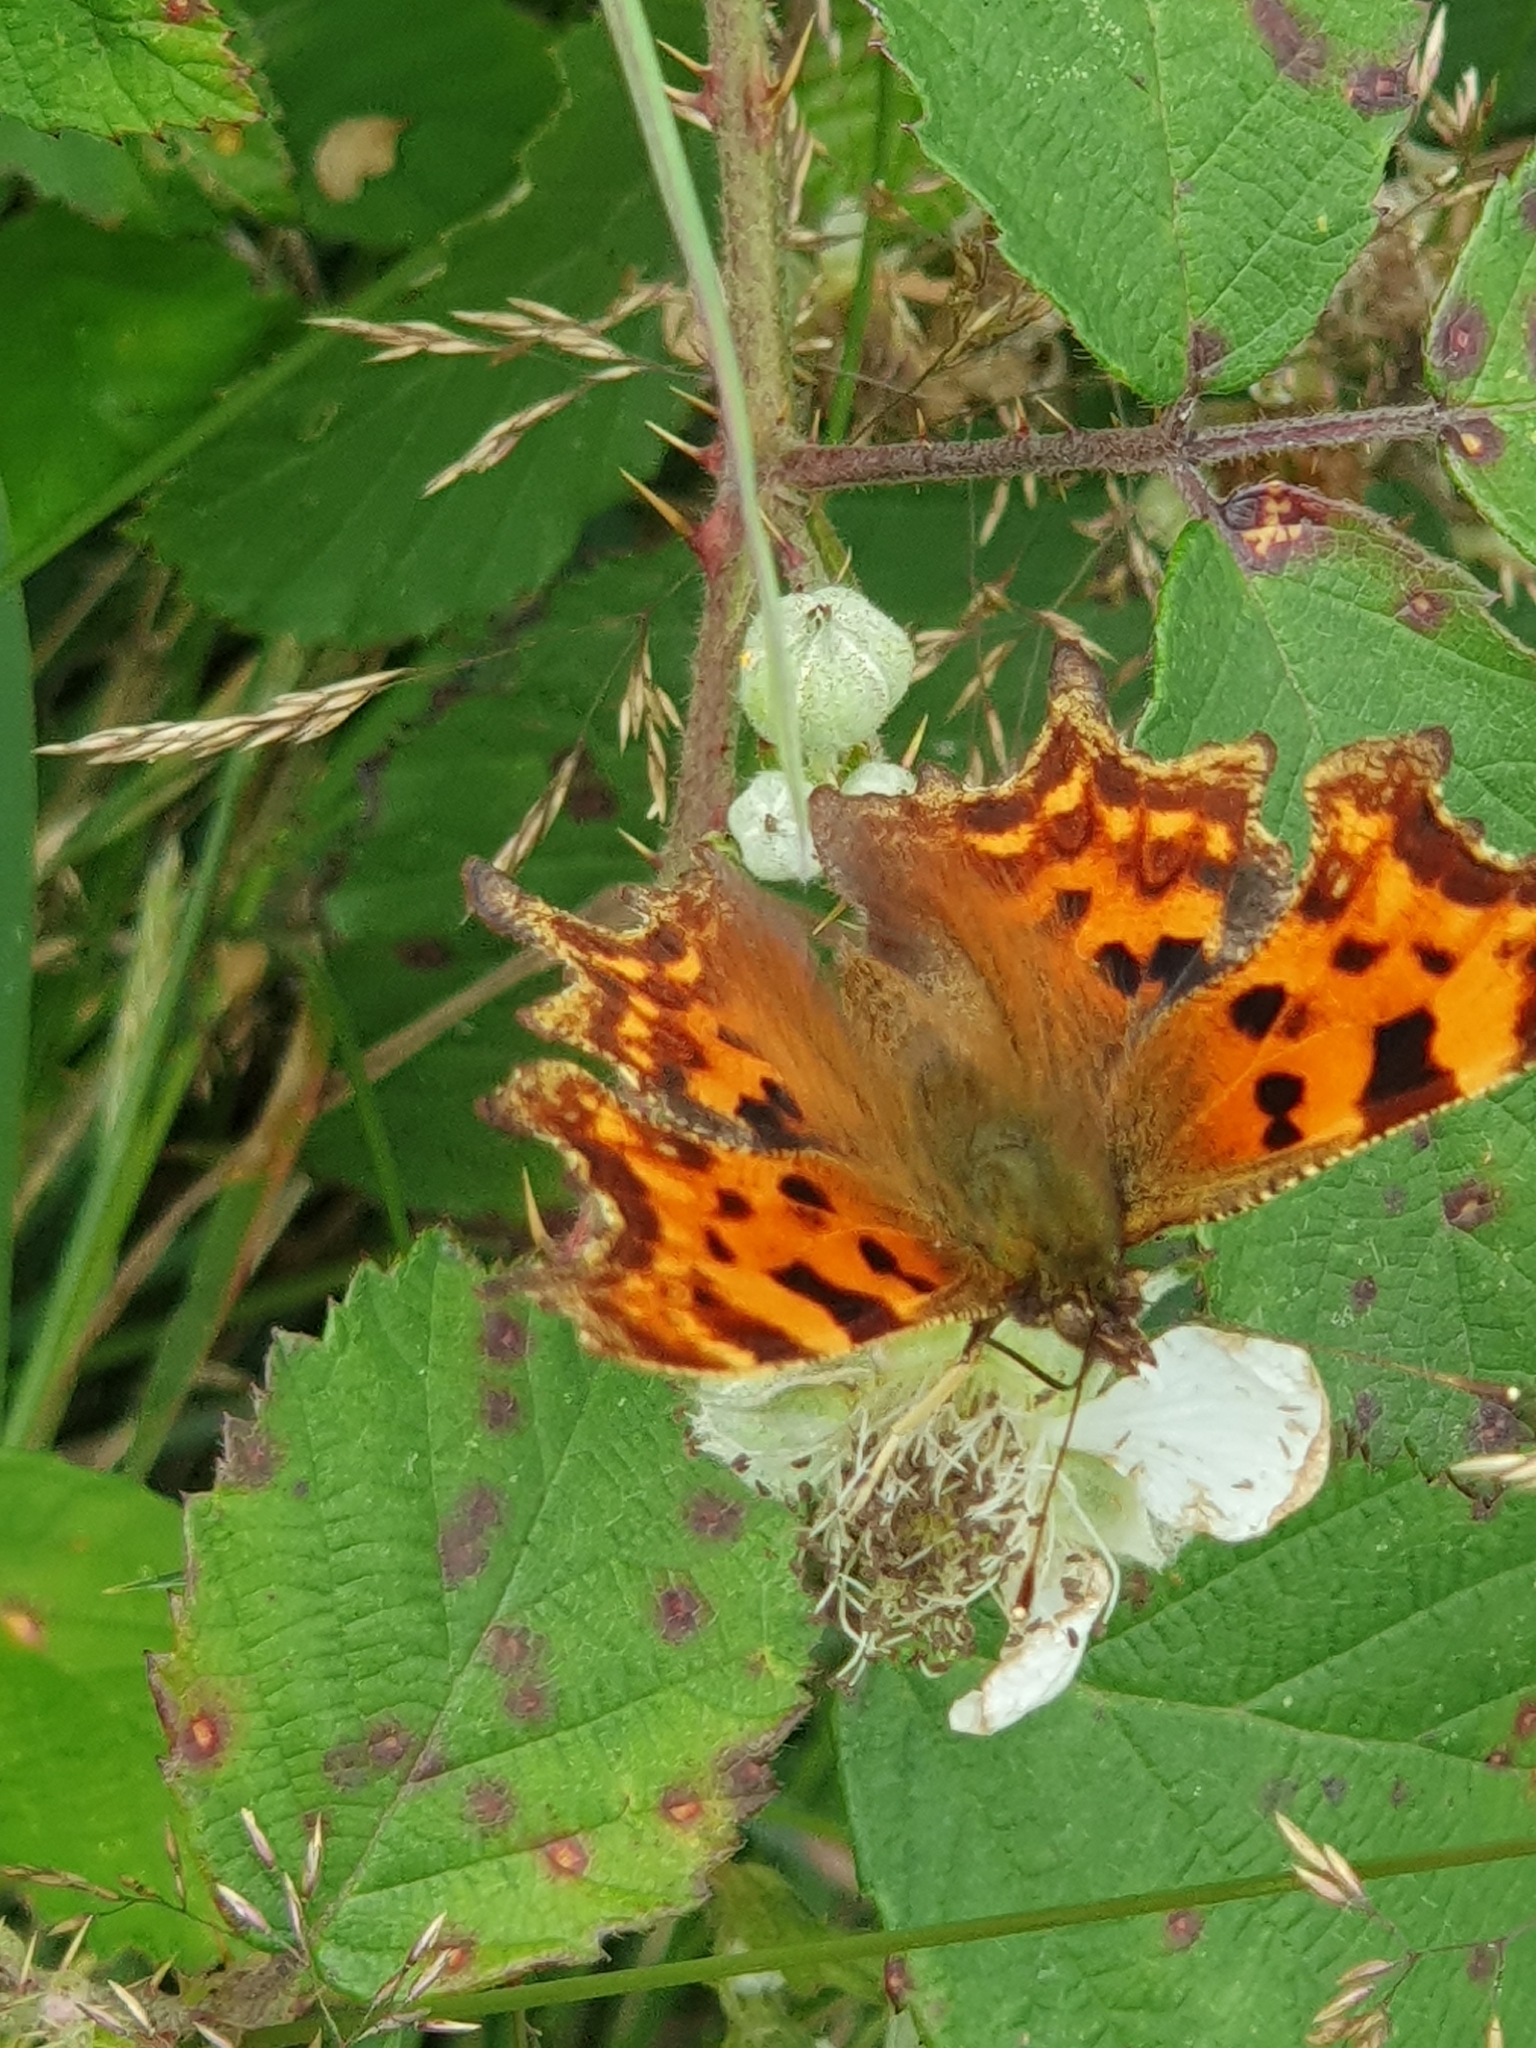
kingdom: Animalia
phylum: Arthropoda
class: Insecta
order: Lepidoptera
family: Nymphalidae
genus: Polygonia
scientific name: Polygonia c-album
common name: Comma
